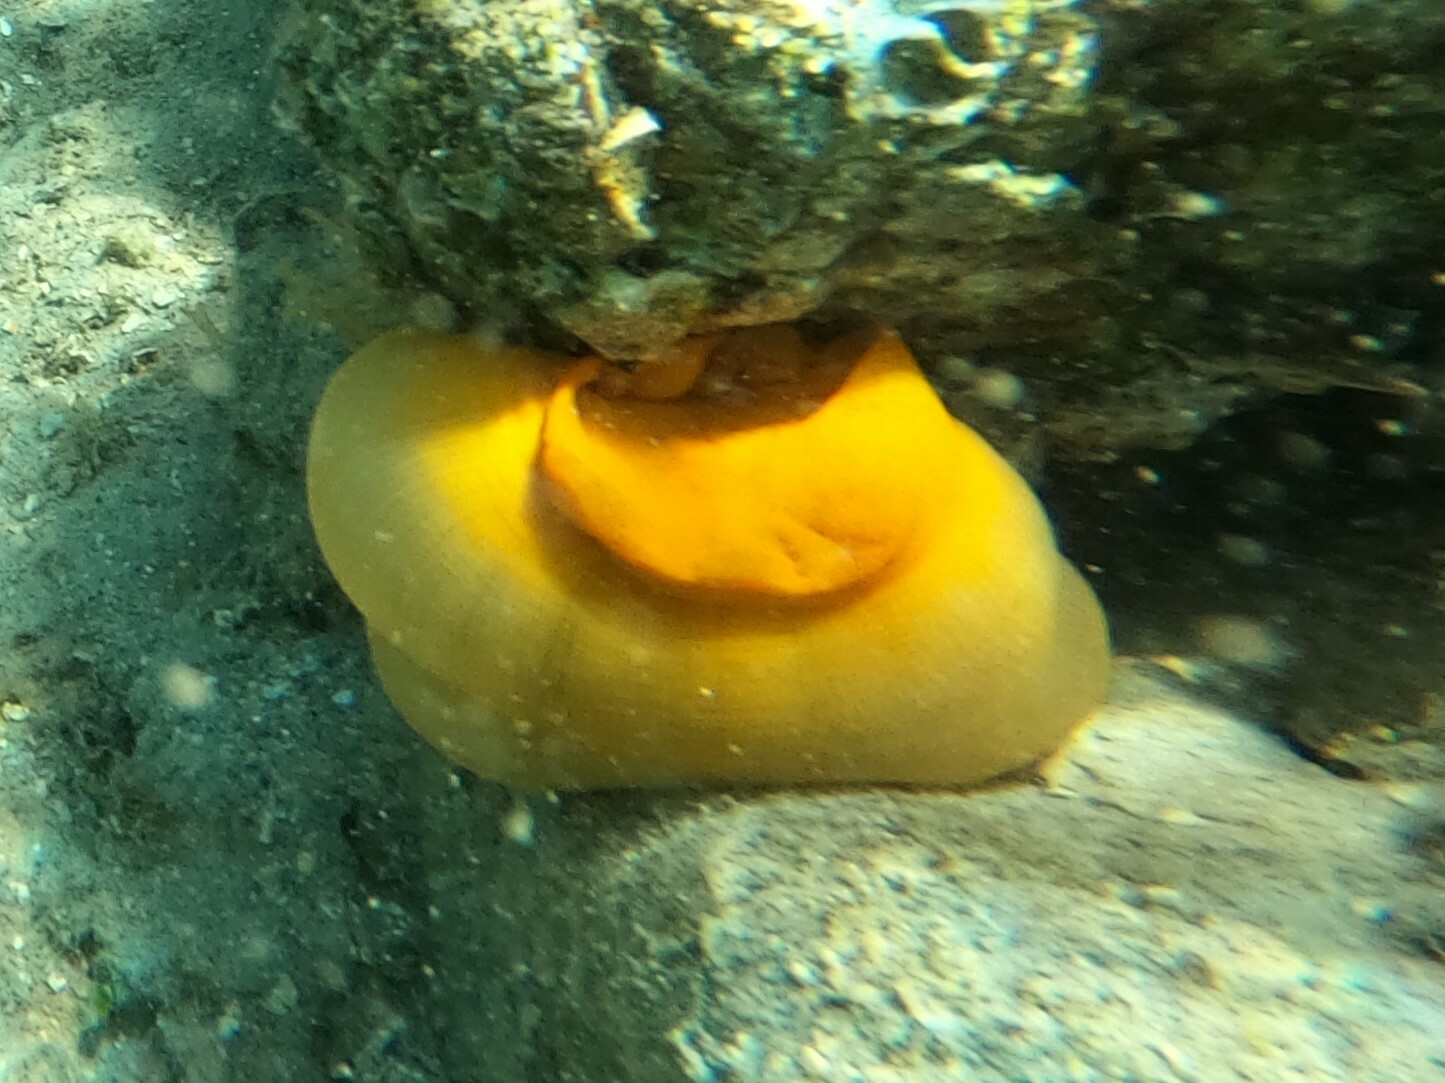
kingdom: Animalia
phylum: Cnidaria
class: Anthozoa
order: Actiniaria
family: Actiniidae
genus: Condylactis
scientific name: Condylactis gigantea
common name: Giant caribbean anemone
